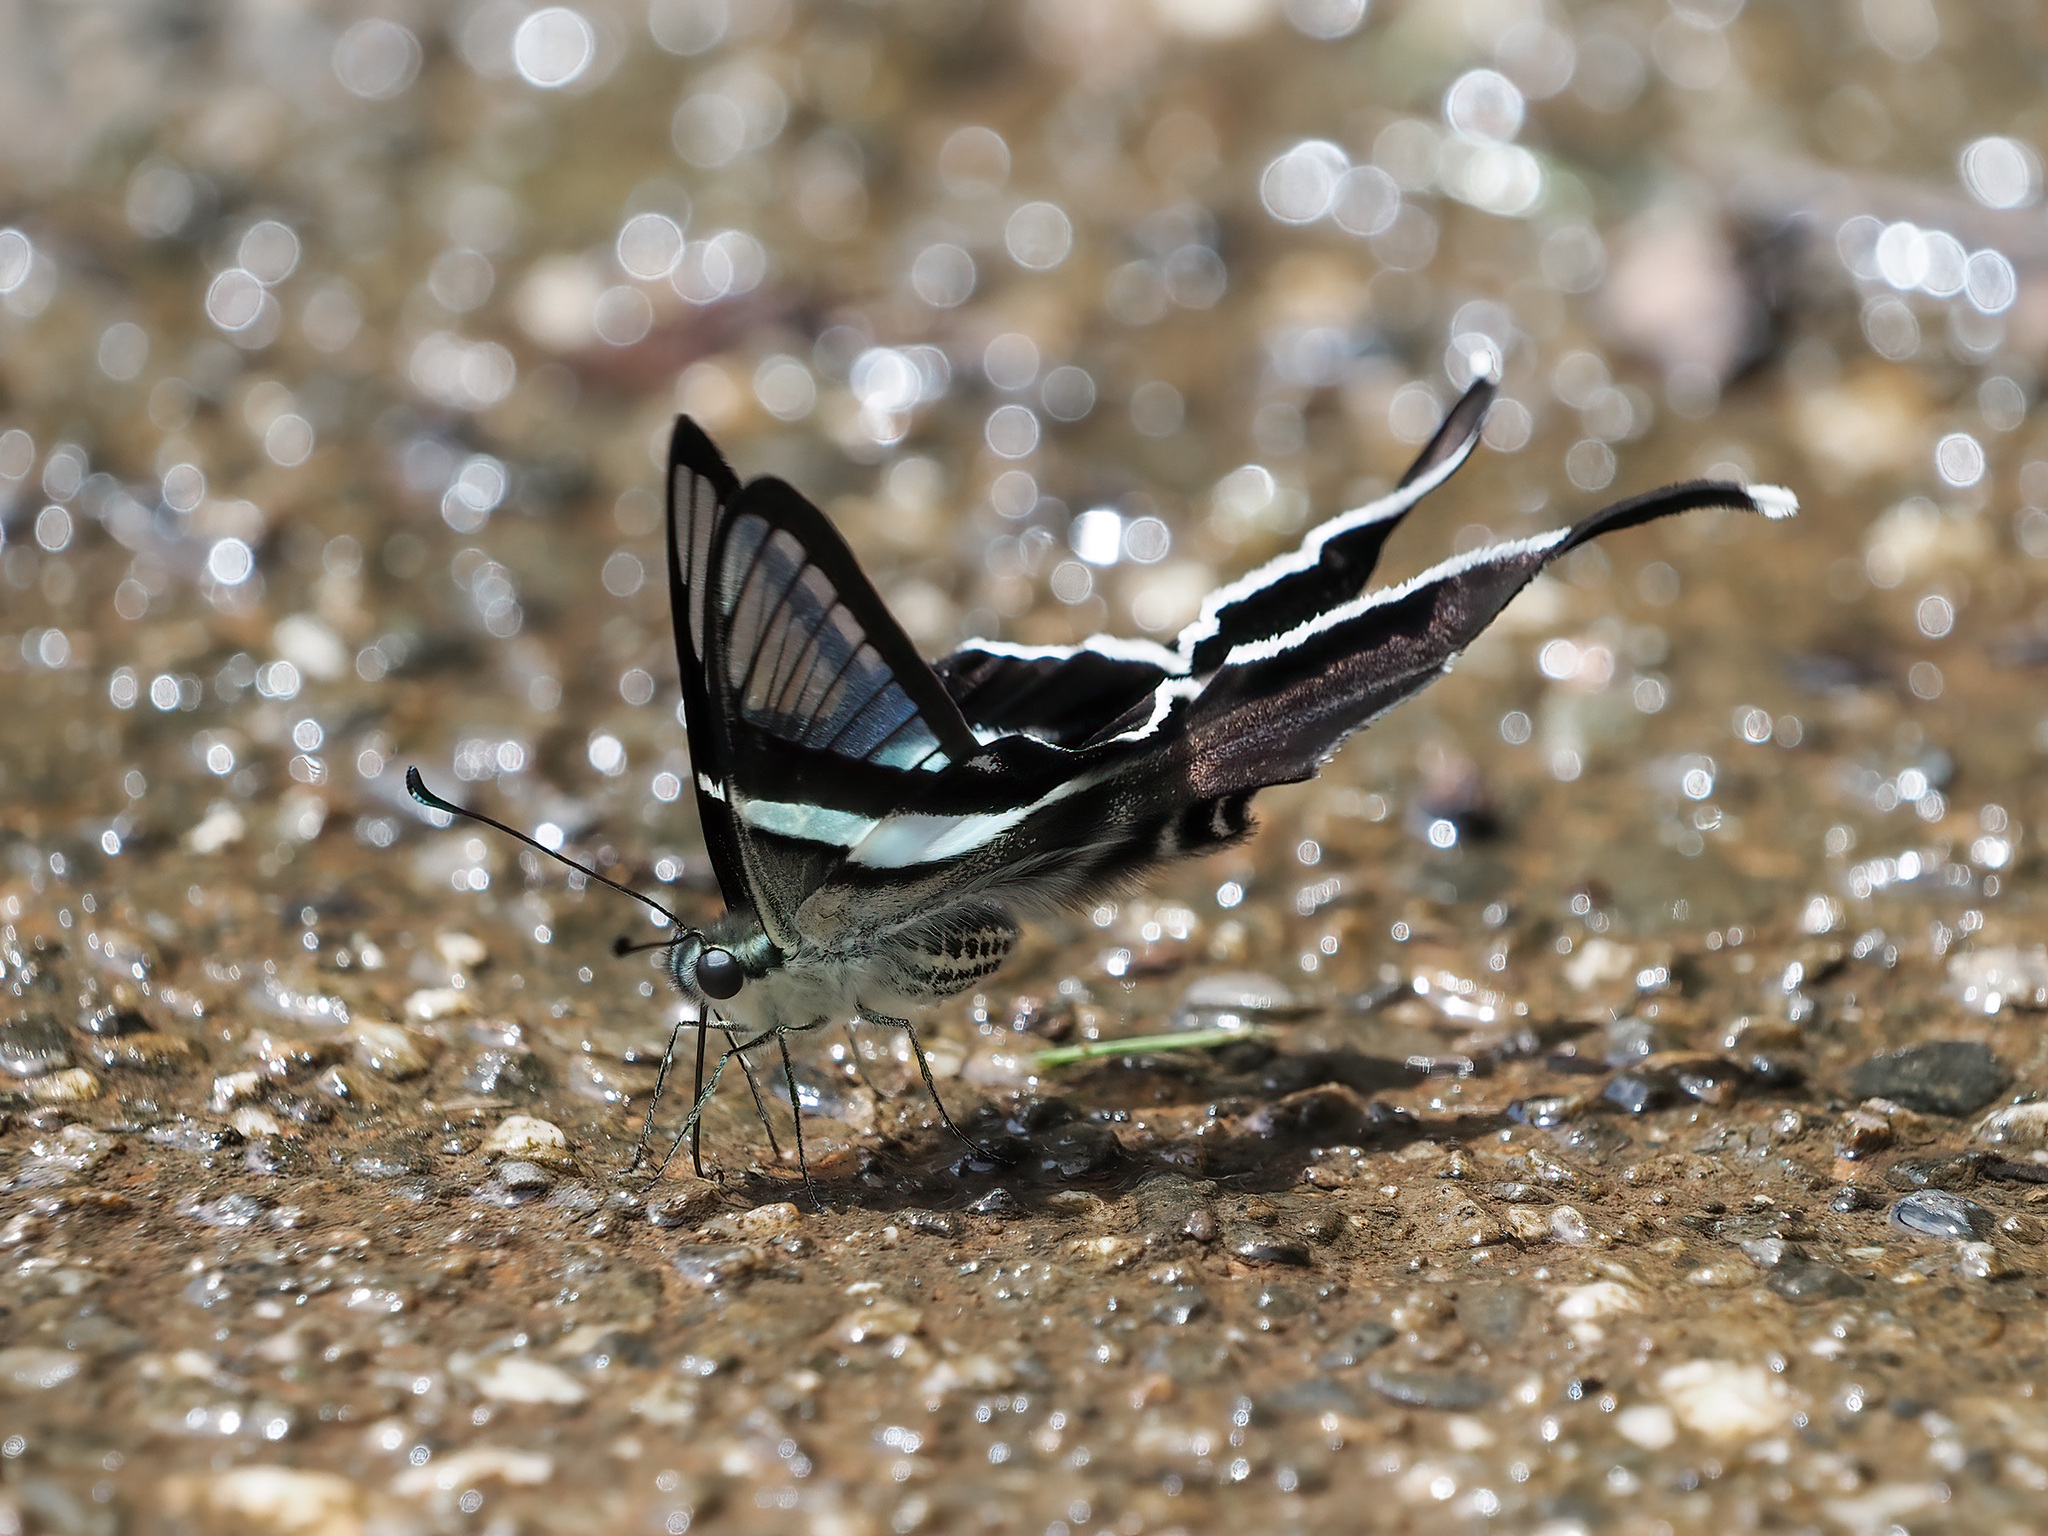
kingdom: Animalia
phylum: Arthropoda
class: Insecta
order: Lepidoptera
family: Papilionidae
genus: Lamproptera
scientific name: Lamproptera meges
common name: Green dragontail
